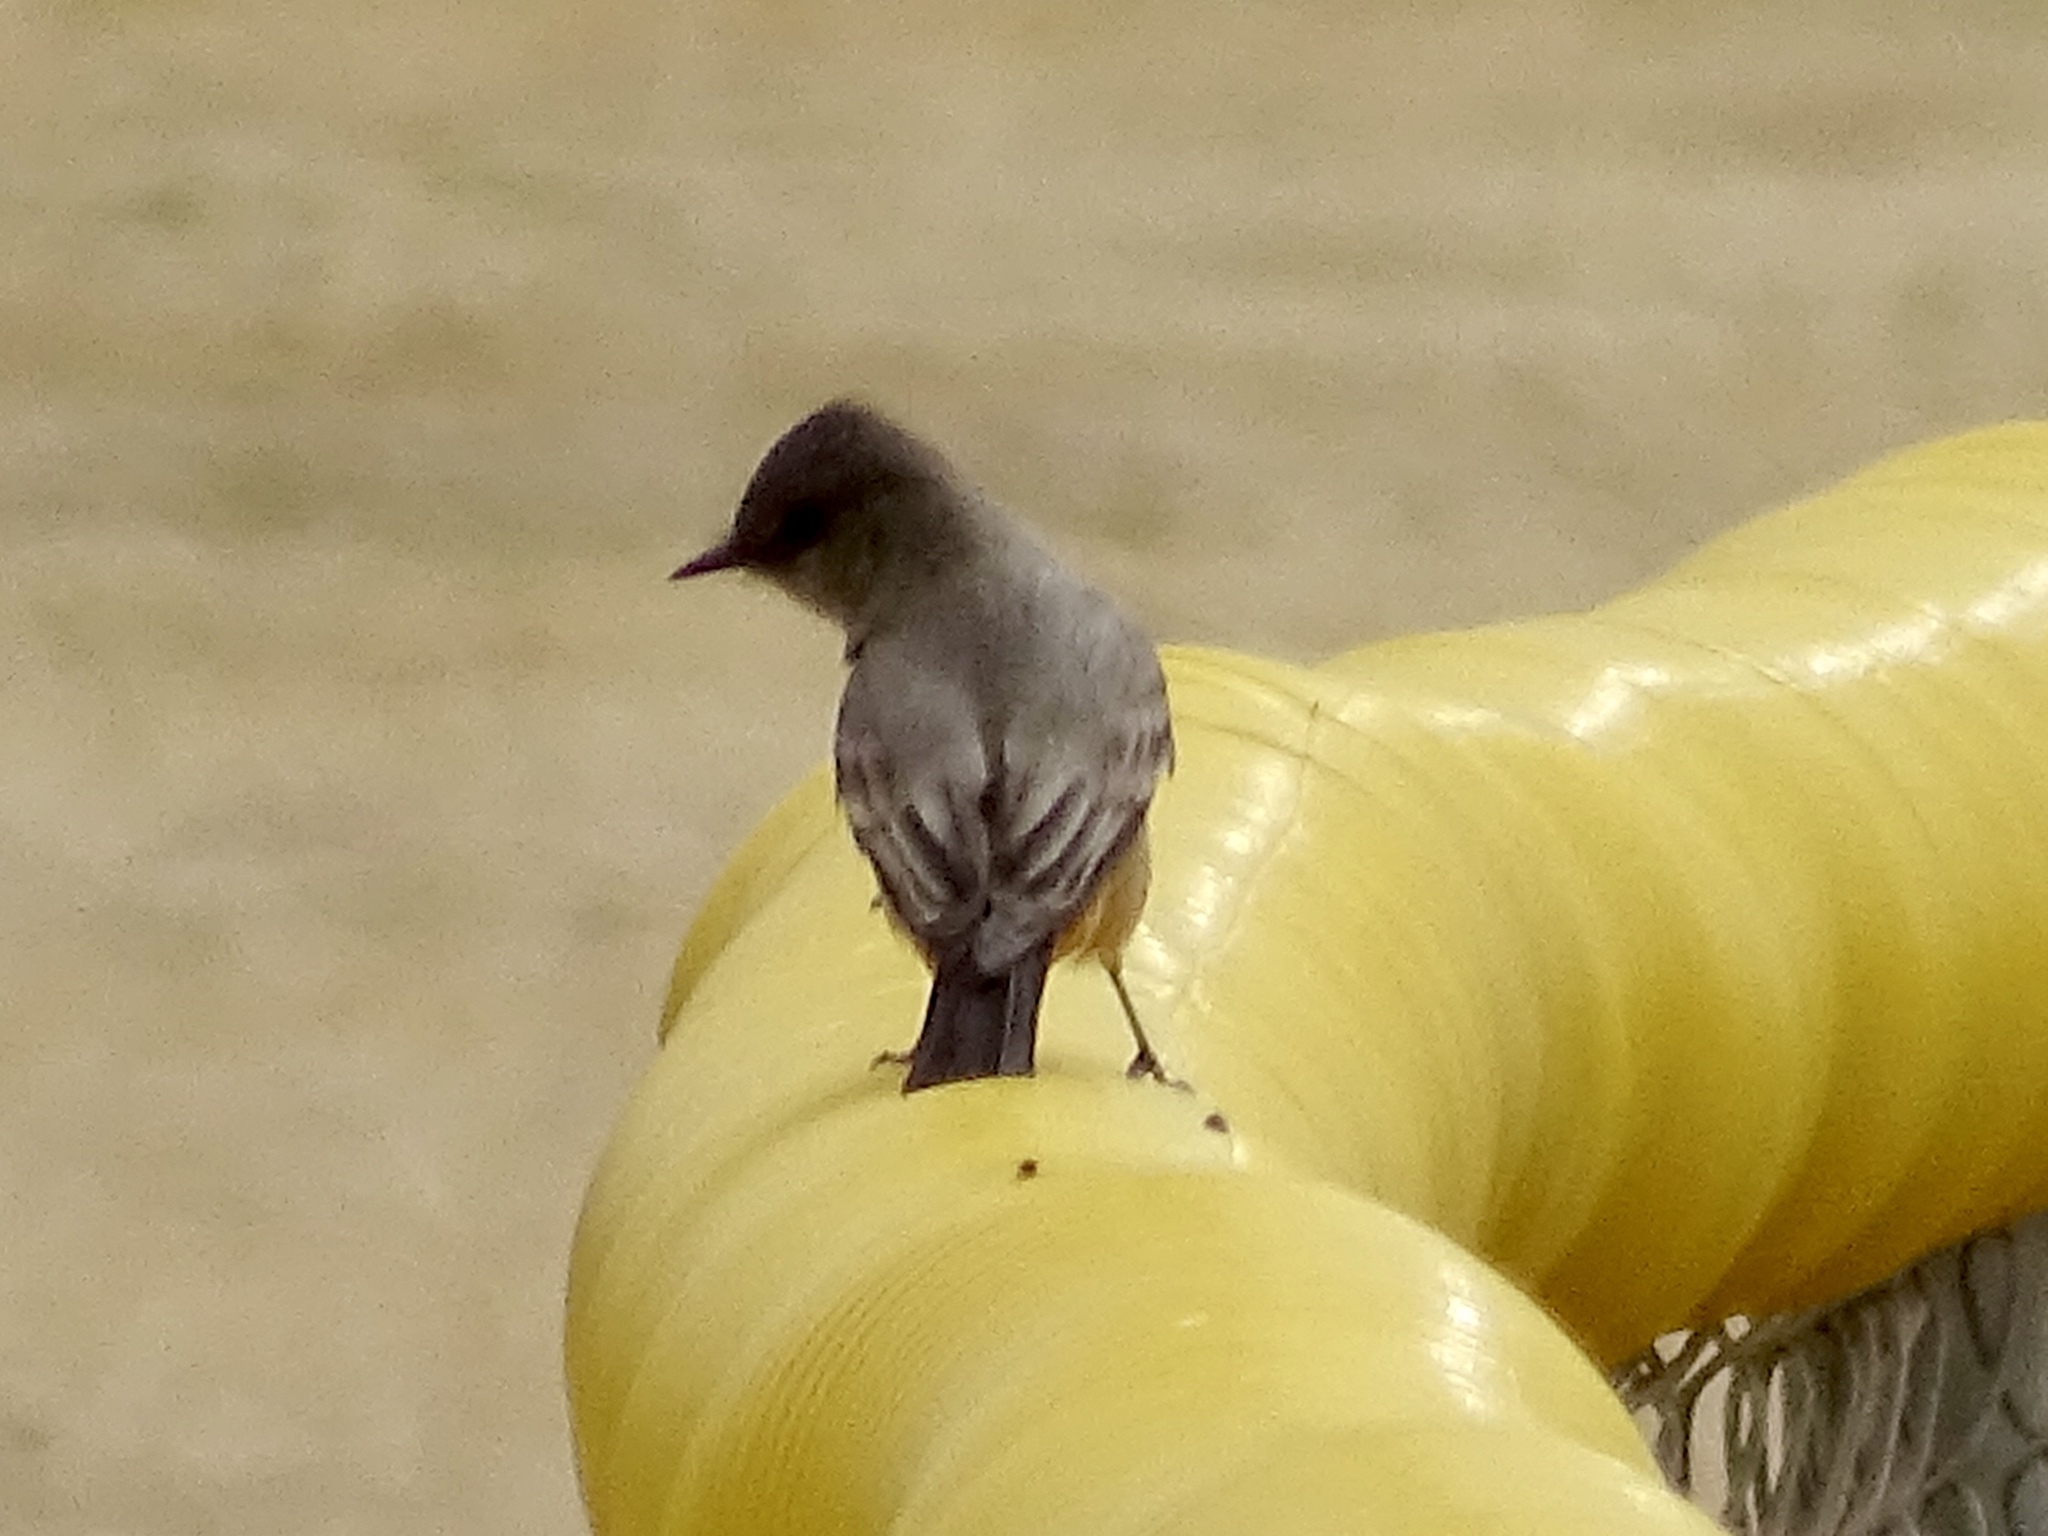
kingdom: Animalia
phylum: Chordata
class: Aves
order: Passeriformes
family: Tyrannidae
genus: Sayornis
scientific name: Sayornis saya
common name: Say's phoebe
